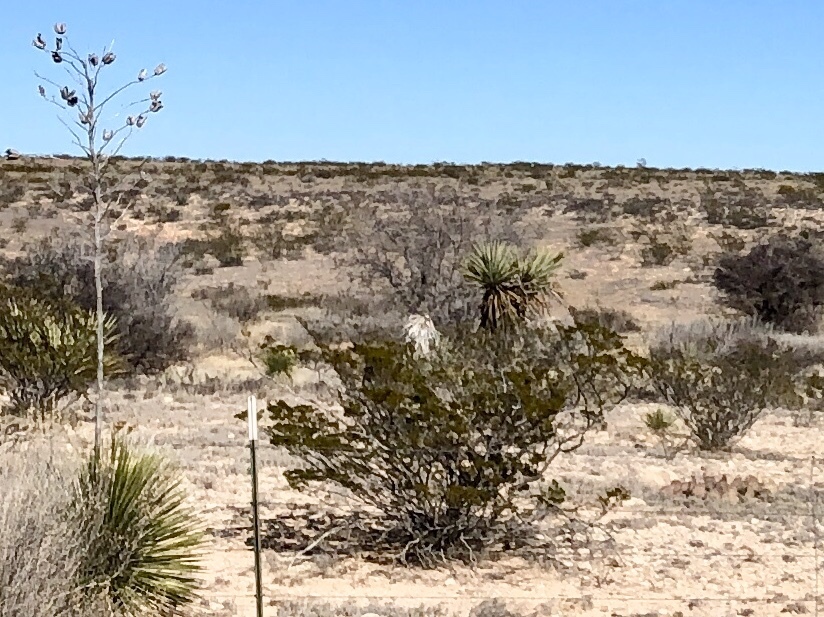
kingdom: Plantae
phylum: Tracheophyta
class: Magnoliopsida
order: Zygophyllales
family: Zygophyllaceae
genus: Larrea
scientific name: Larrea tridentata
